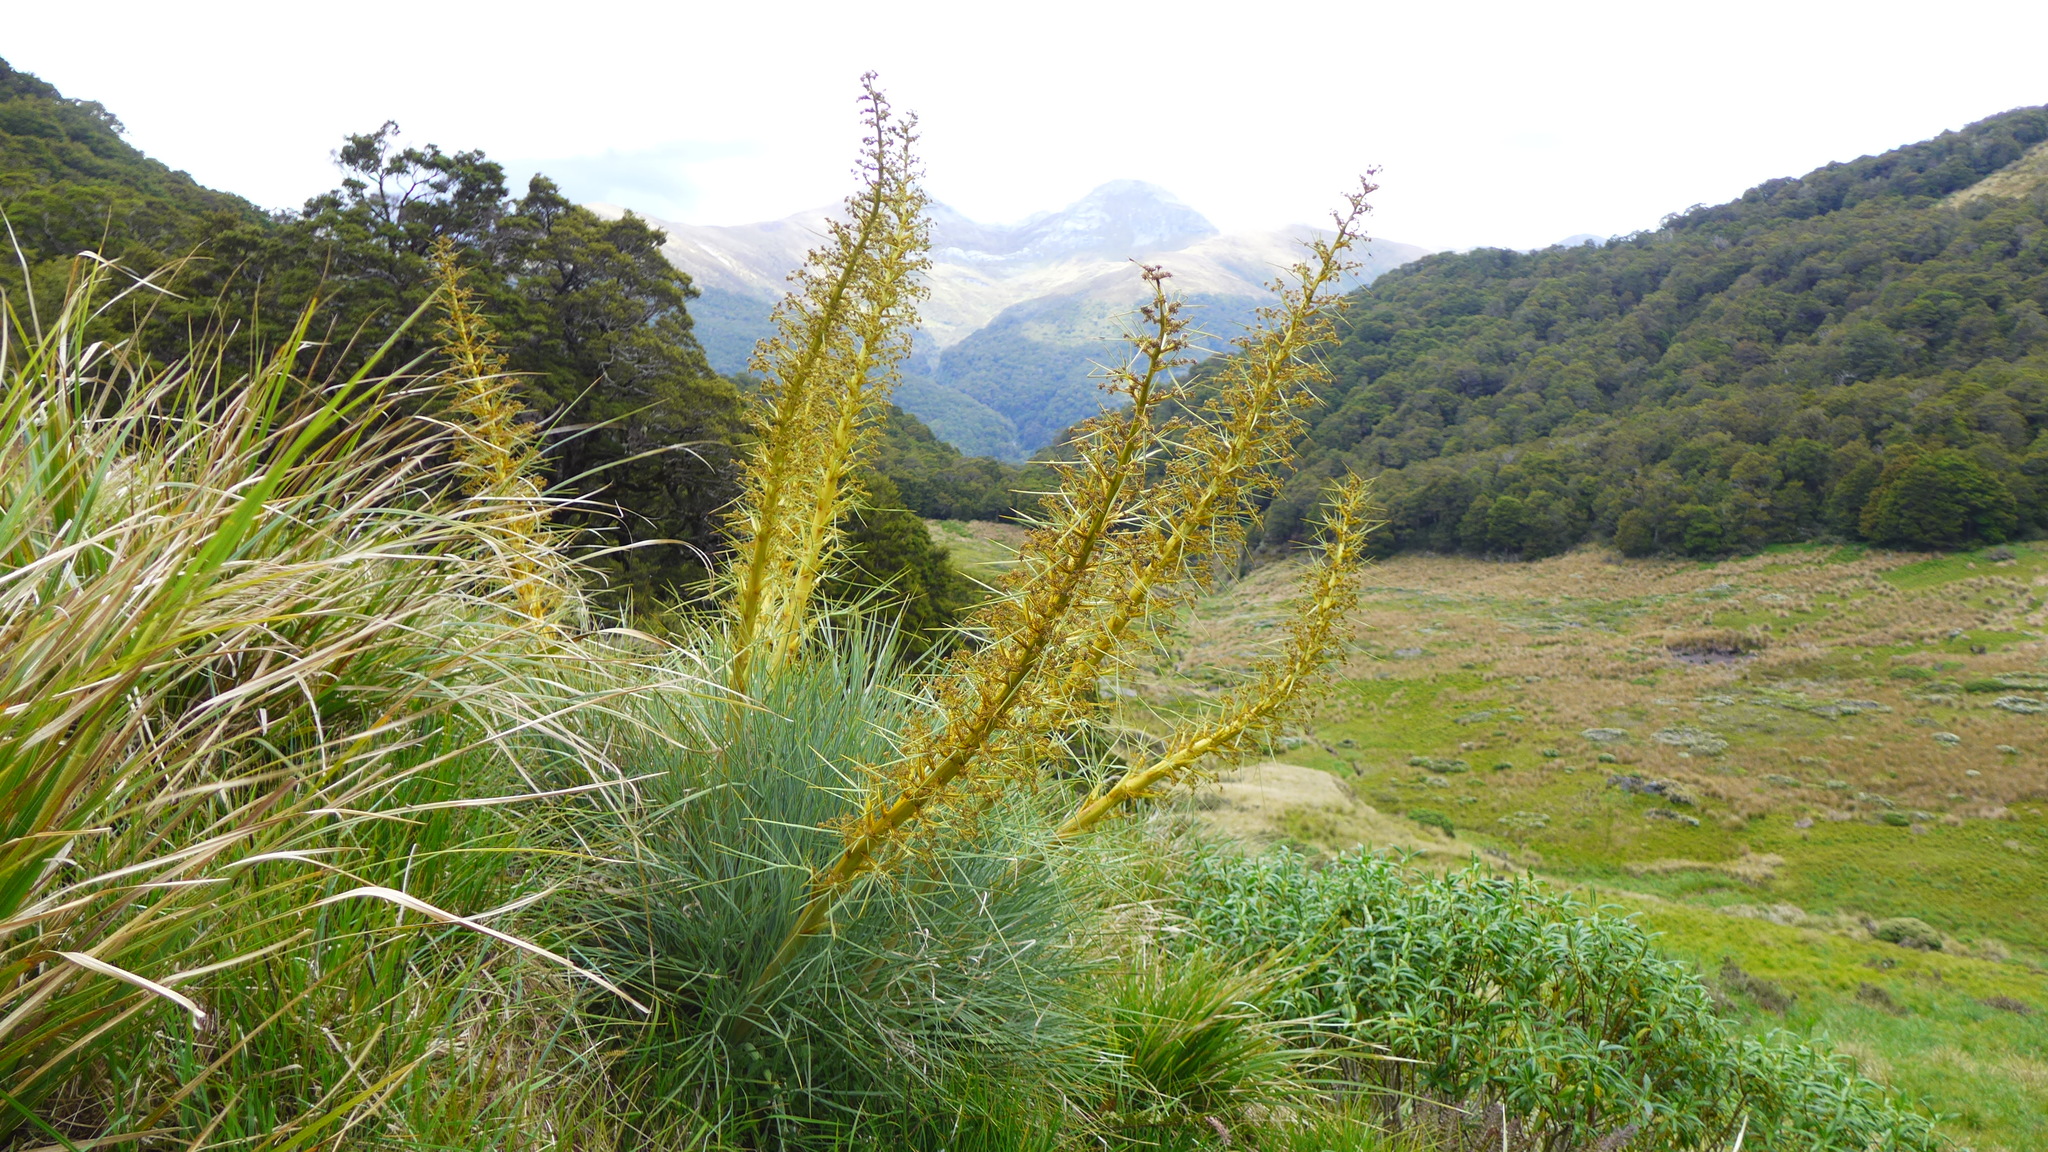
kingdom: Plantae
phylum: Tracheophyta
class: Magnoliopsida
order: Apiales
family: Apiaceae
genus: Aciphylla
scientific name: Aciphylla glaucescens
